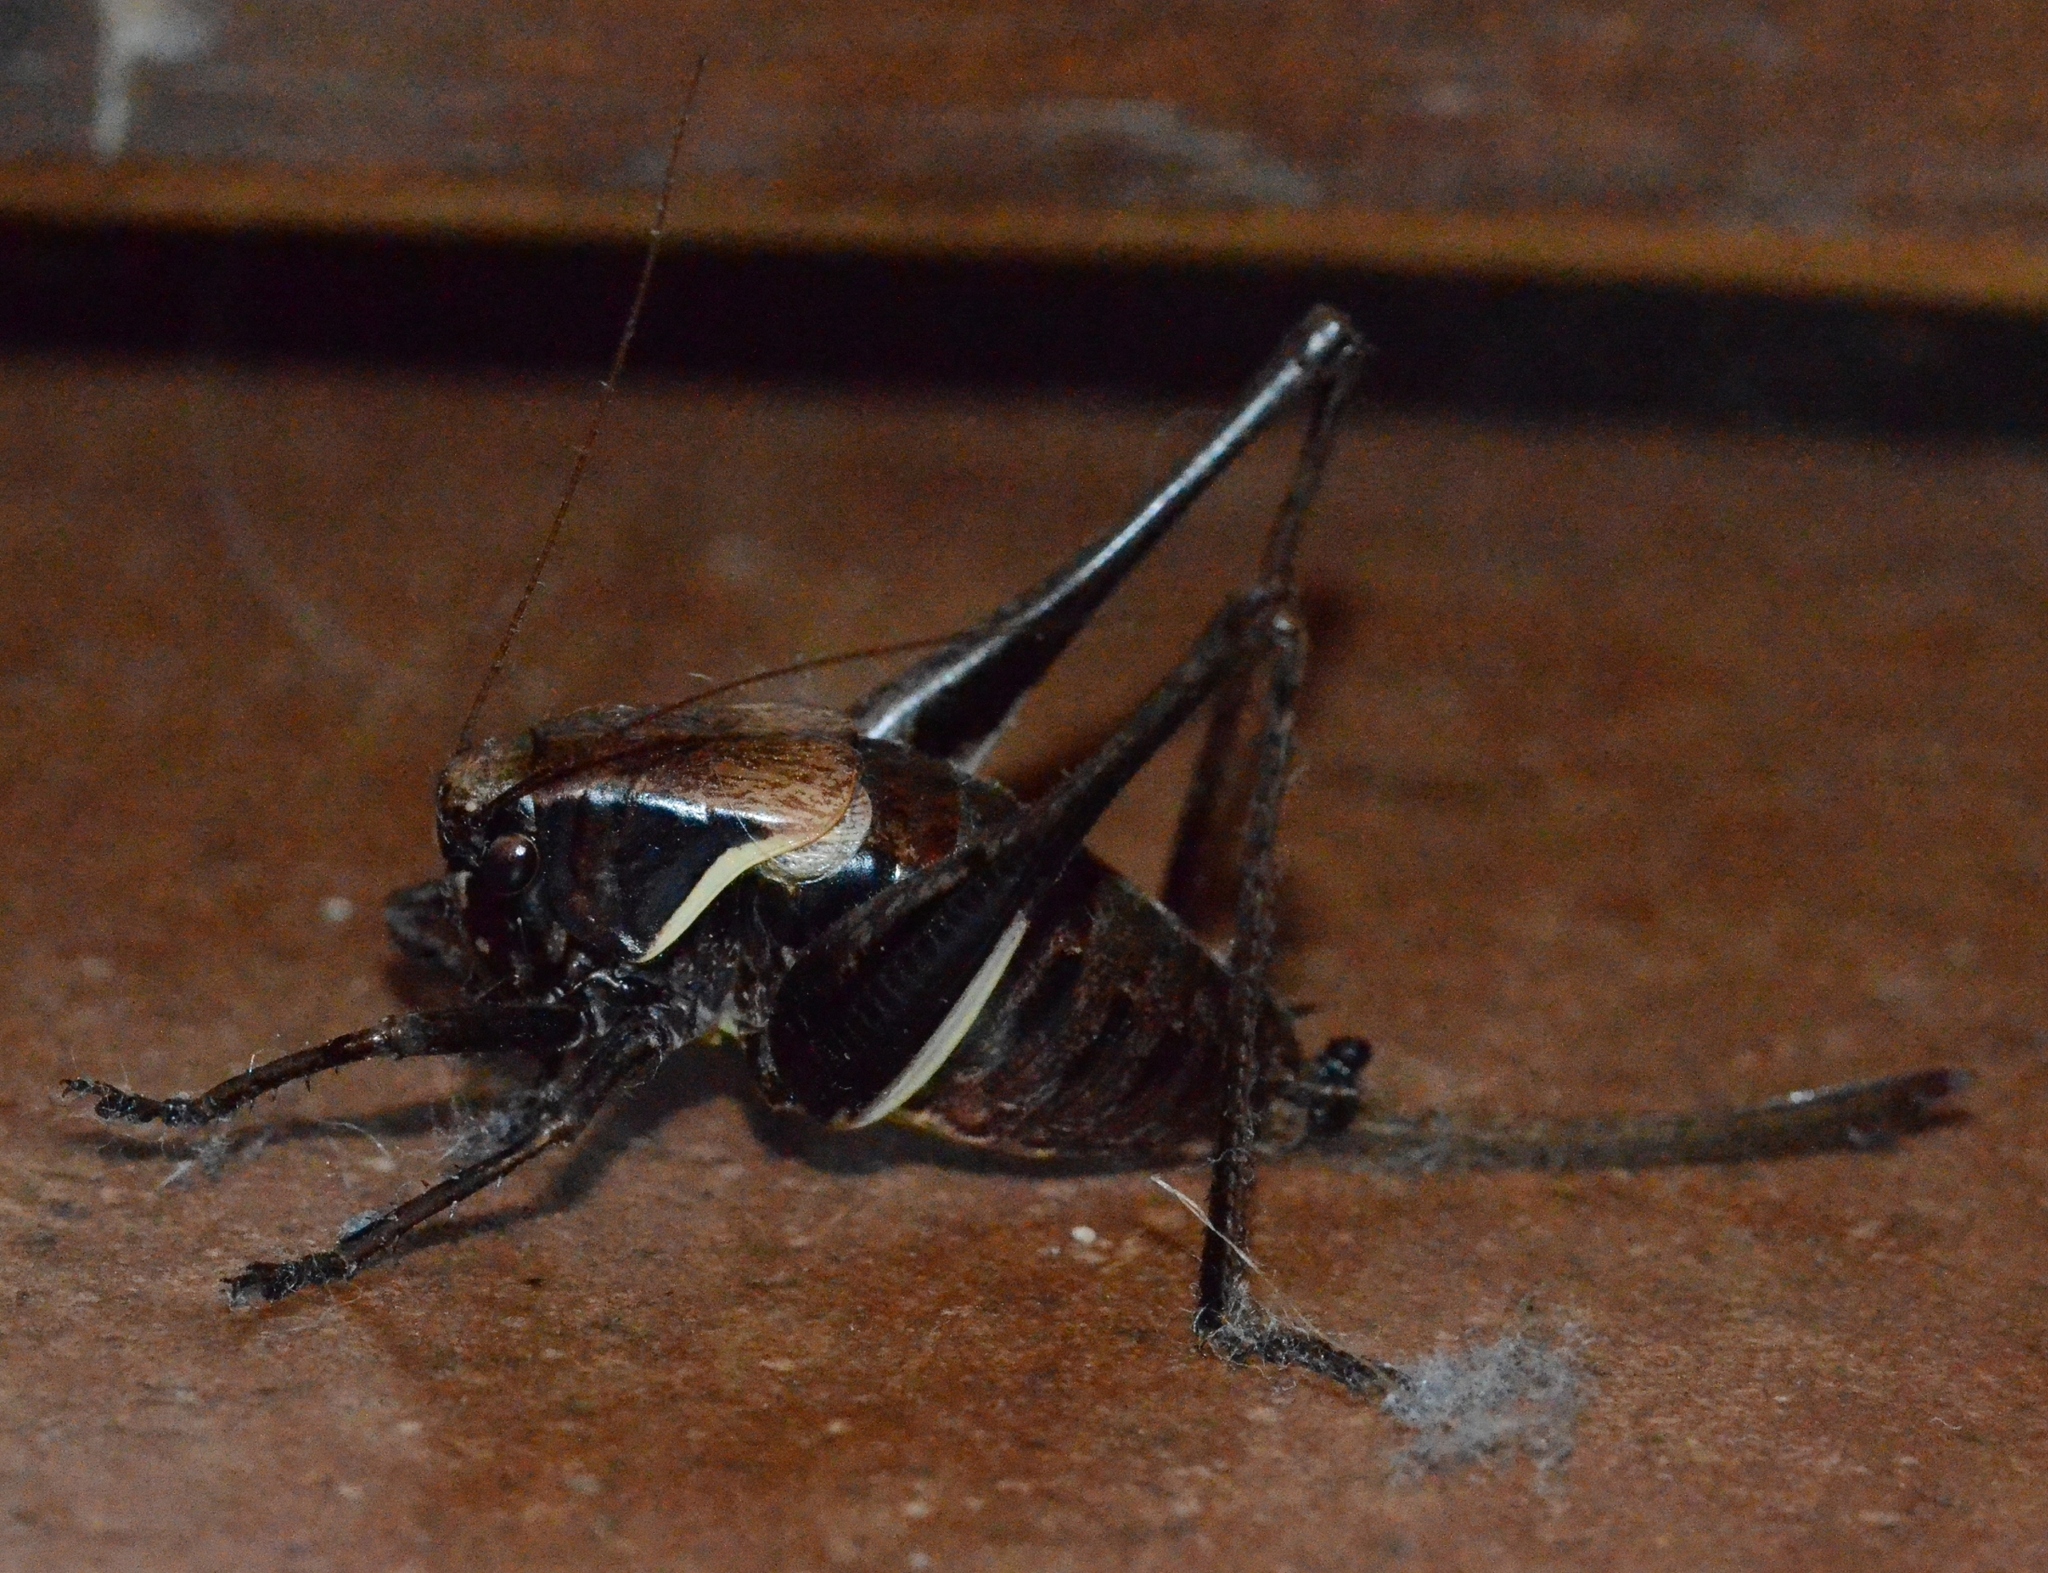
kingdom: Animalia
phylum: Arthropoda
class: Insecta
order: Orthoptera
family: Tettigoniidae
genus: Pholidoptera
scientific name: Pholidoptera aptera
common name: Alpine dark bush-cricket
